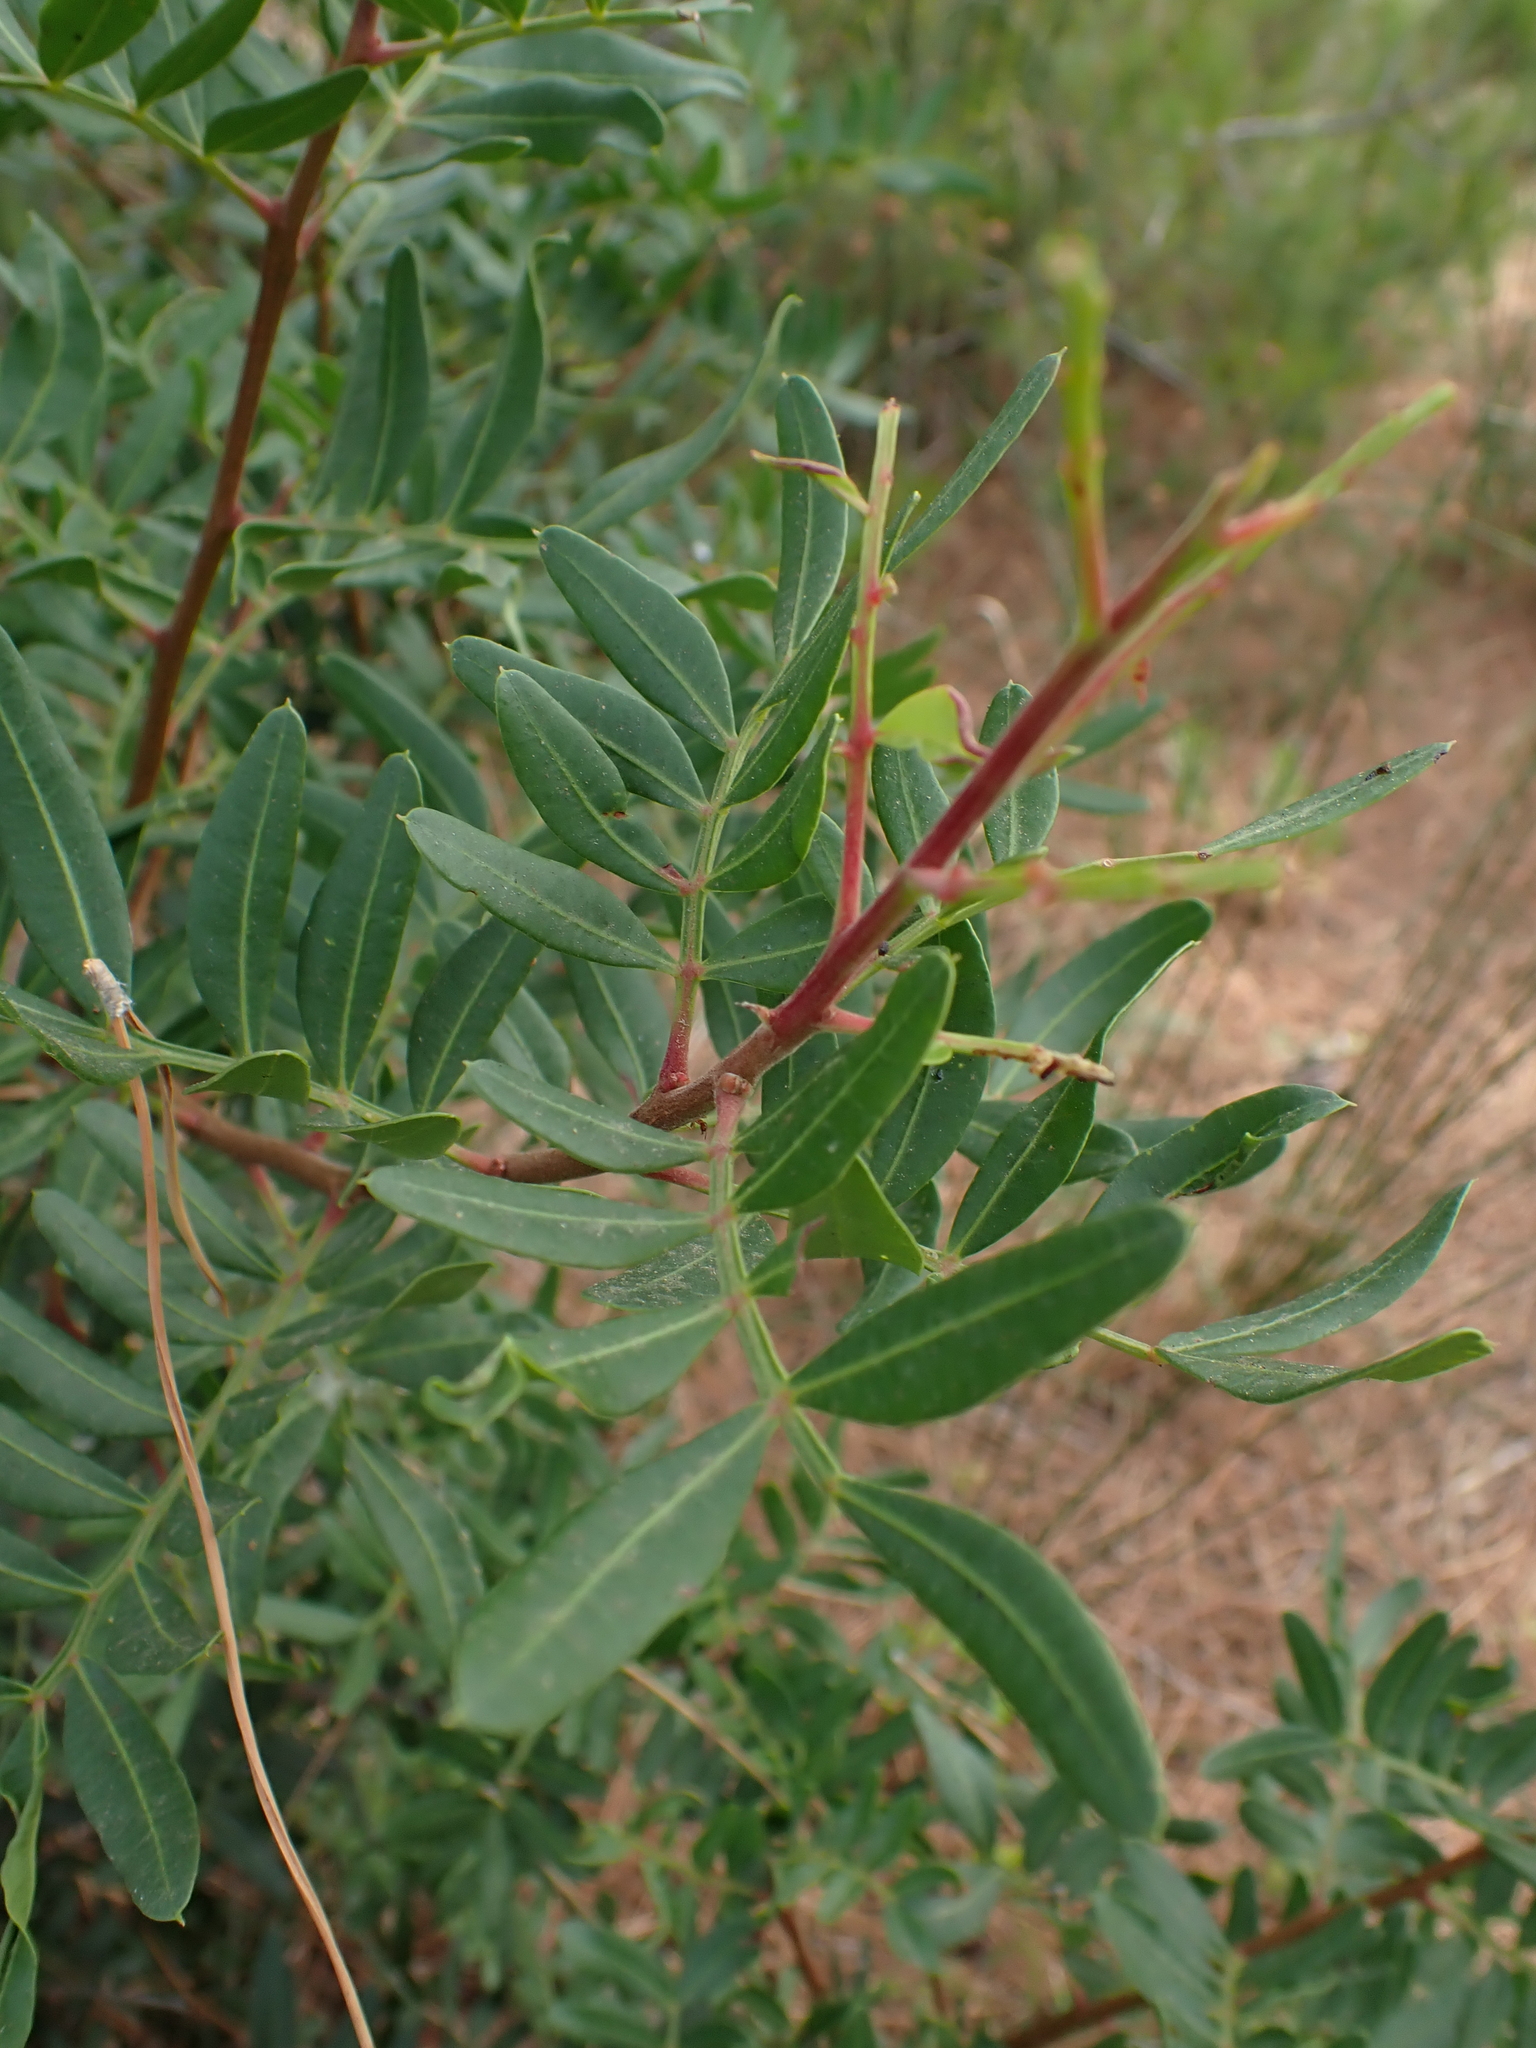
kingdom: Plantae
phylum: Tracheophyta
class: Magnoliopsida
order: Sapindales
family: Anacardiaceae
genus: Pistacia
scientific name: Pistacia lentiscus
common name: Lentisk
